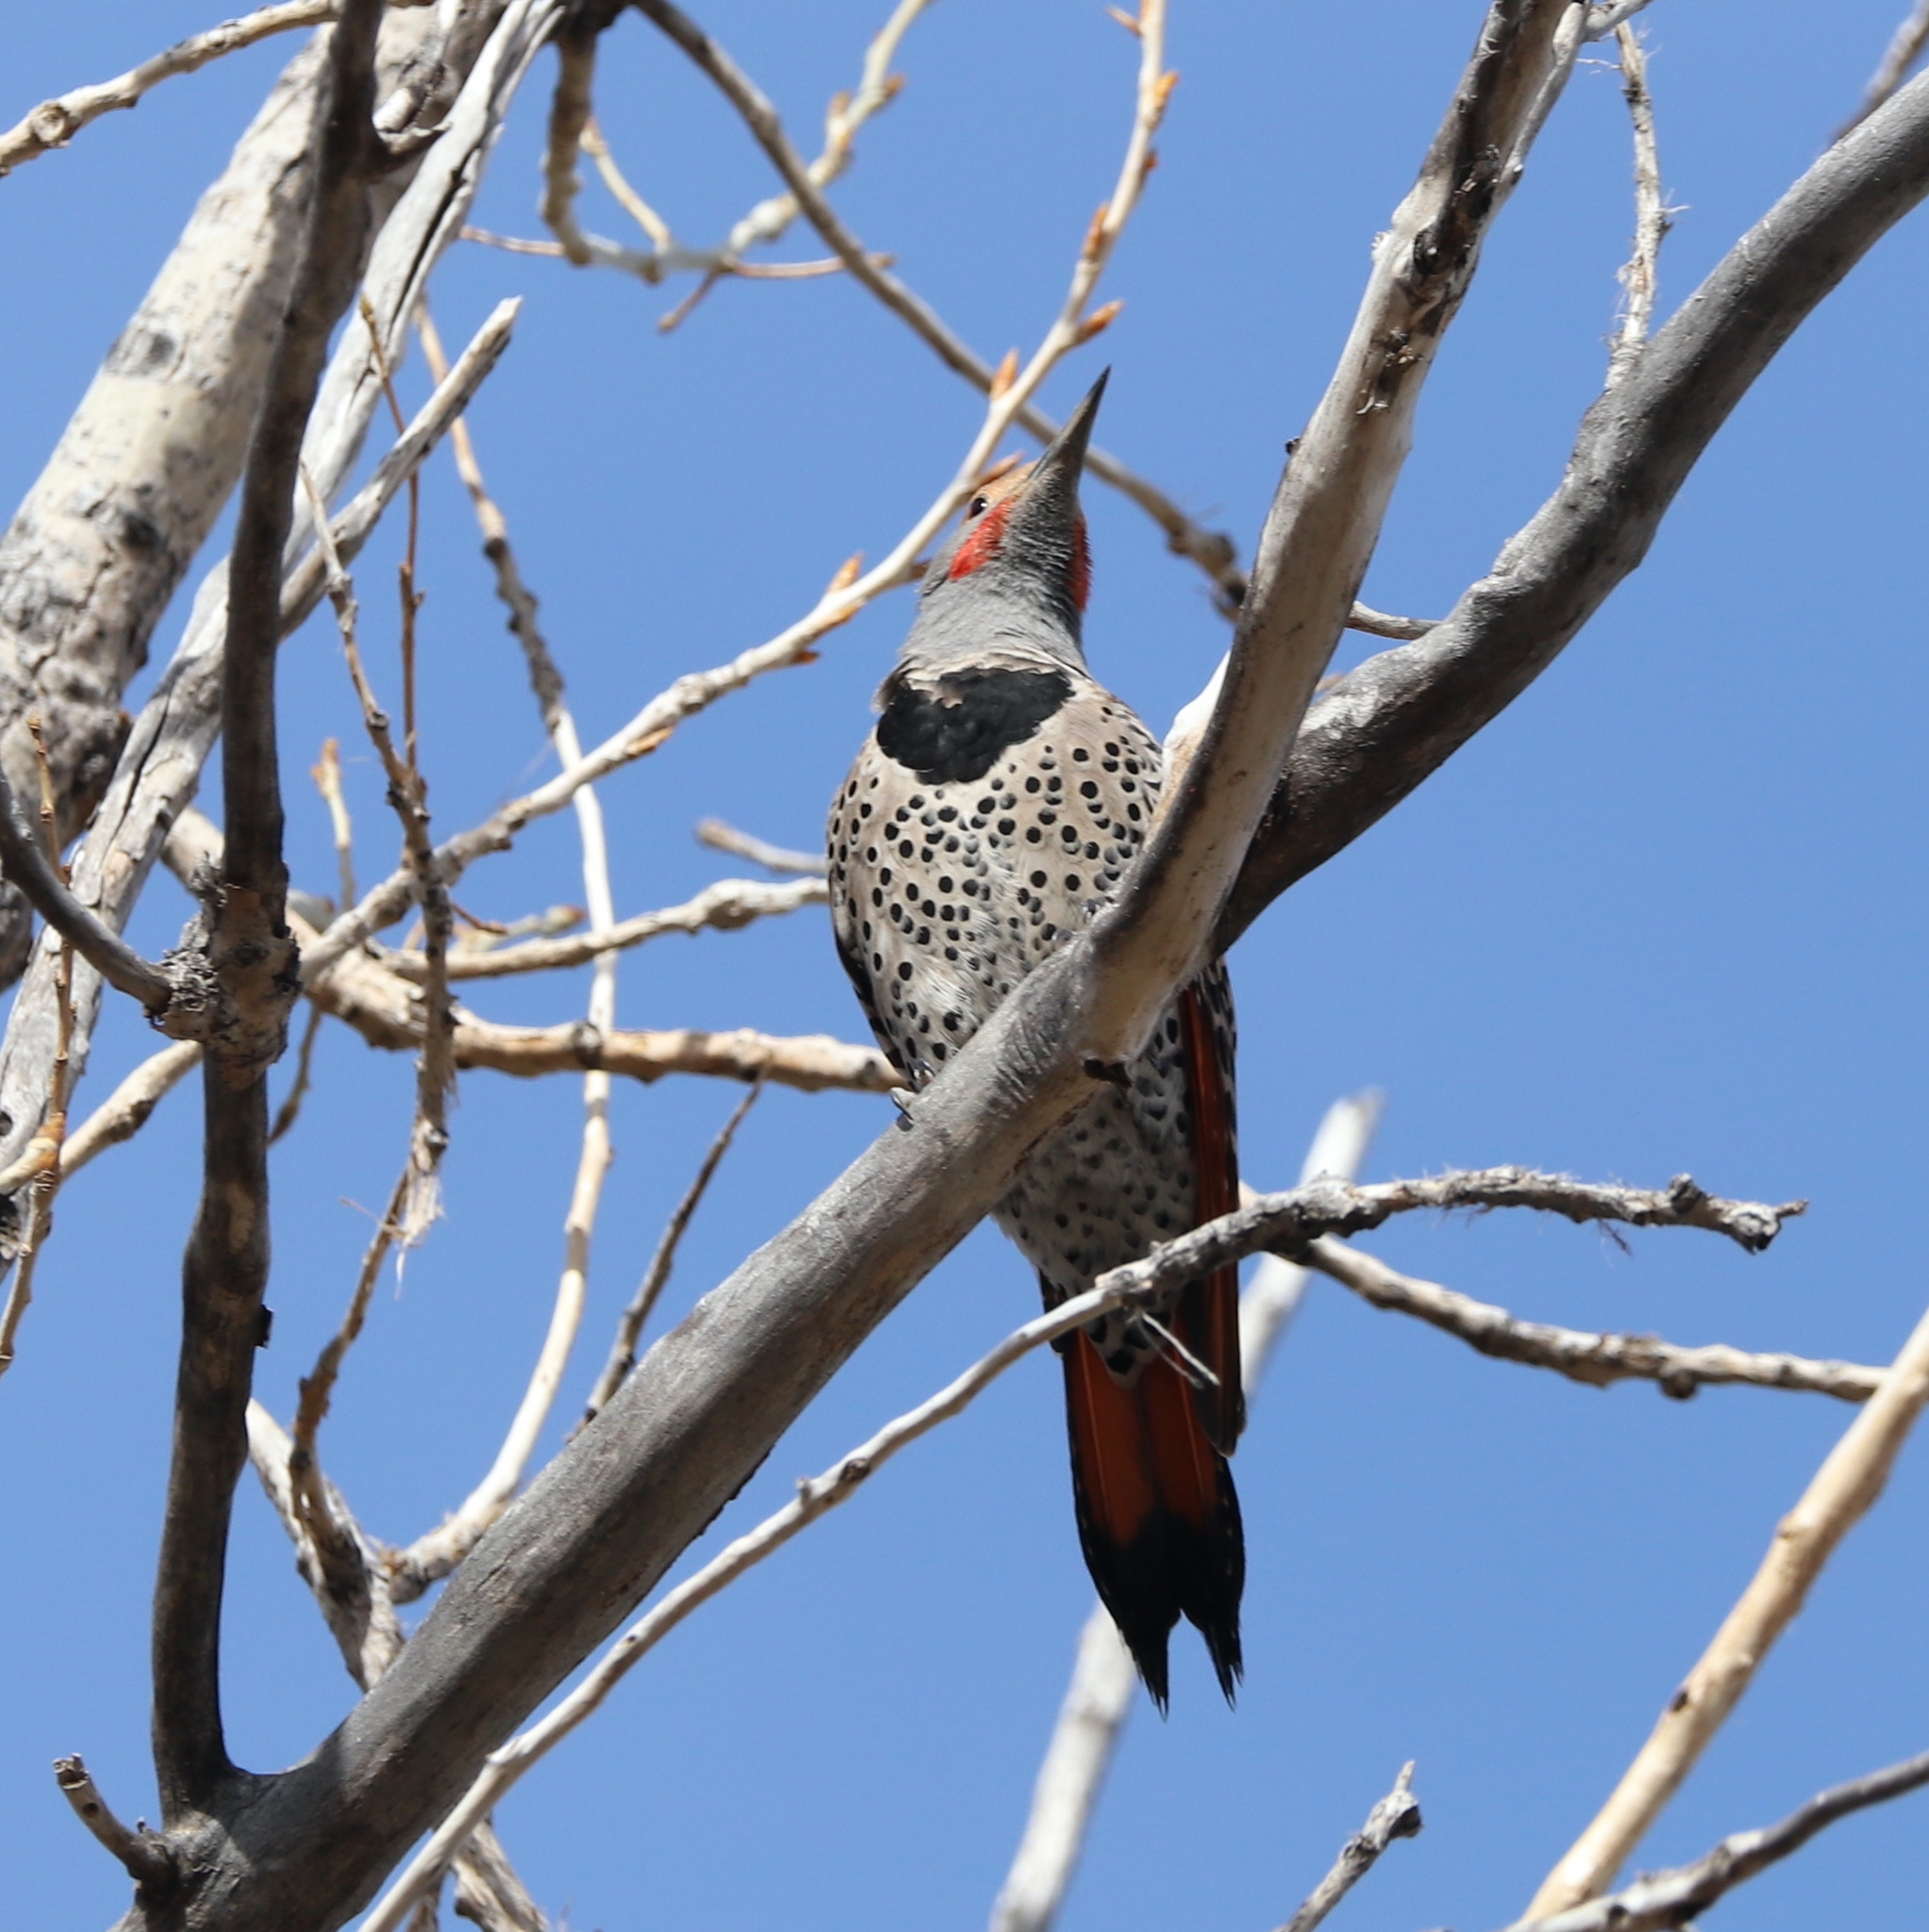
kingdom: Animalia
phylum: Chordata
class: Aves
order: Piciformes
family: Picidae
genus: Colaptes
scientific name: Colaptes auratus
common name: Northern flicker
